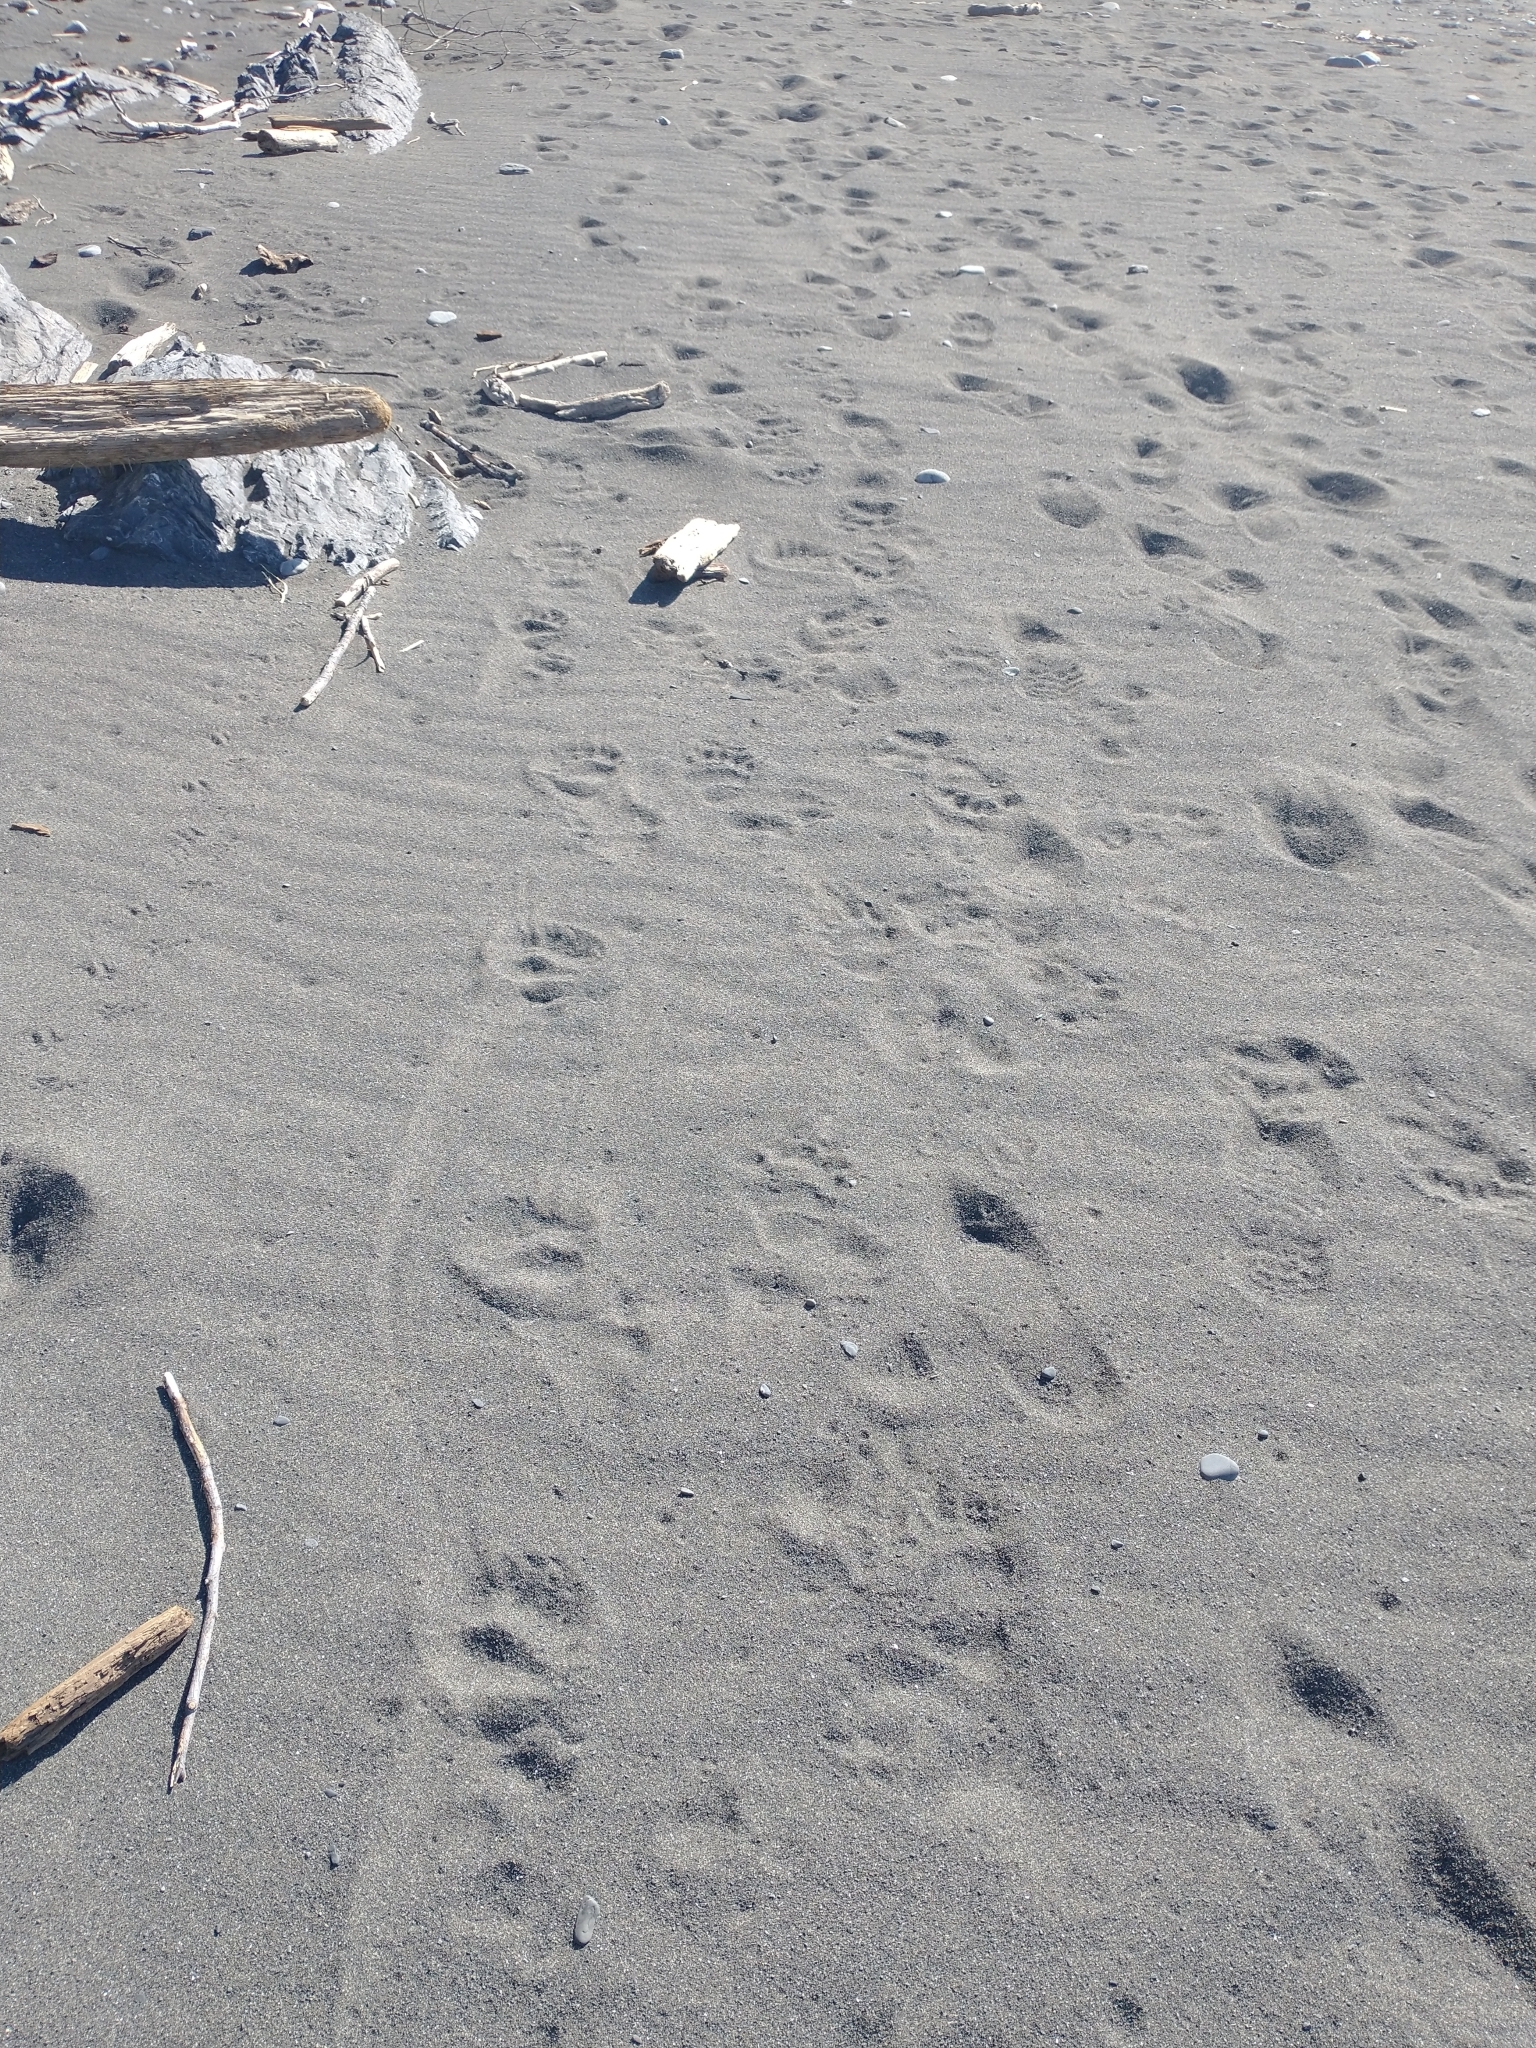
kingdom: Animalia
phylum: Chordata
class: Mammalia
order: Carnivora
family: Ursidae
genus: Ursus
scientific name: Ursus americanus
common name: American black bear
